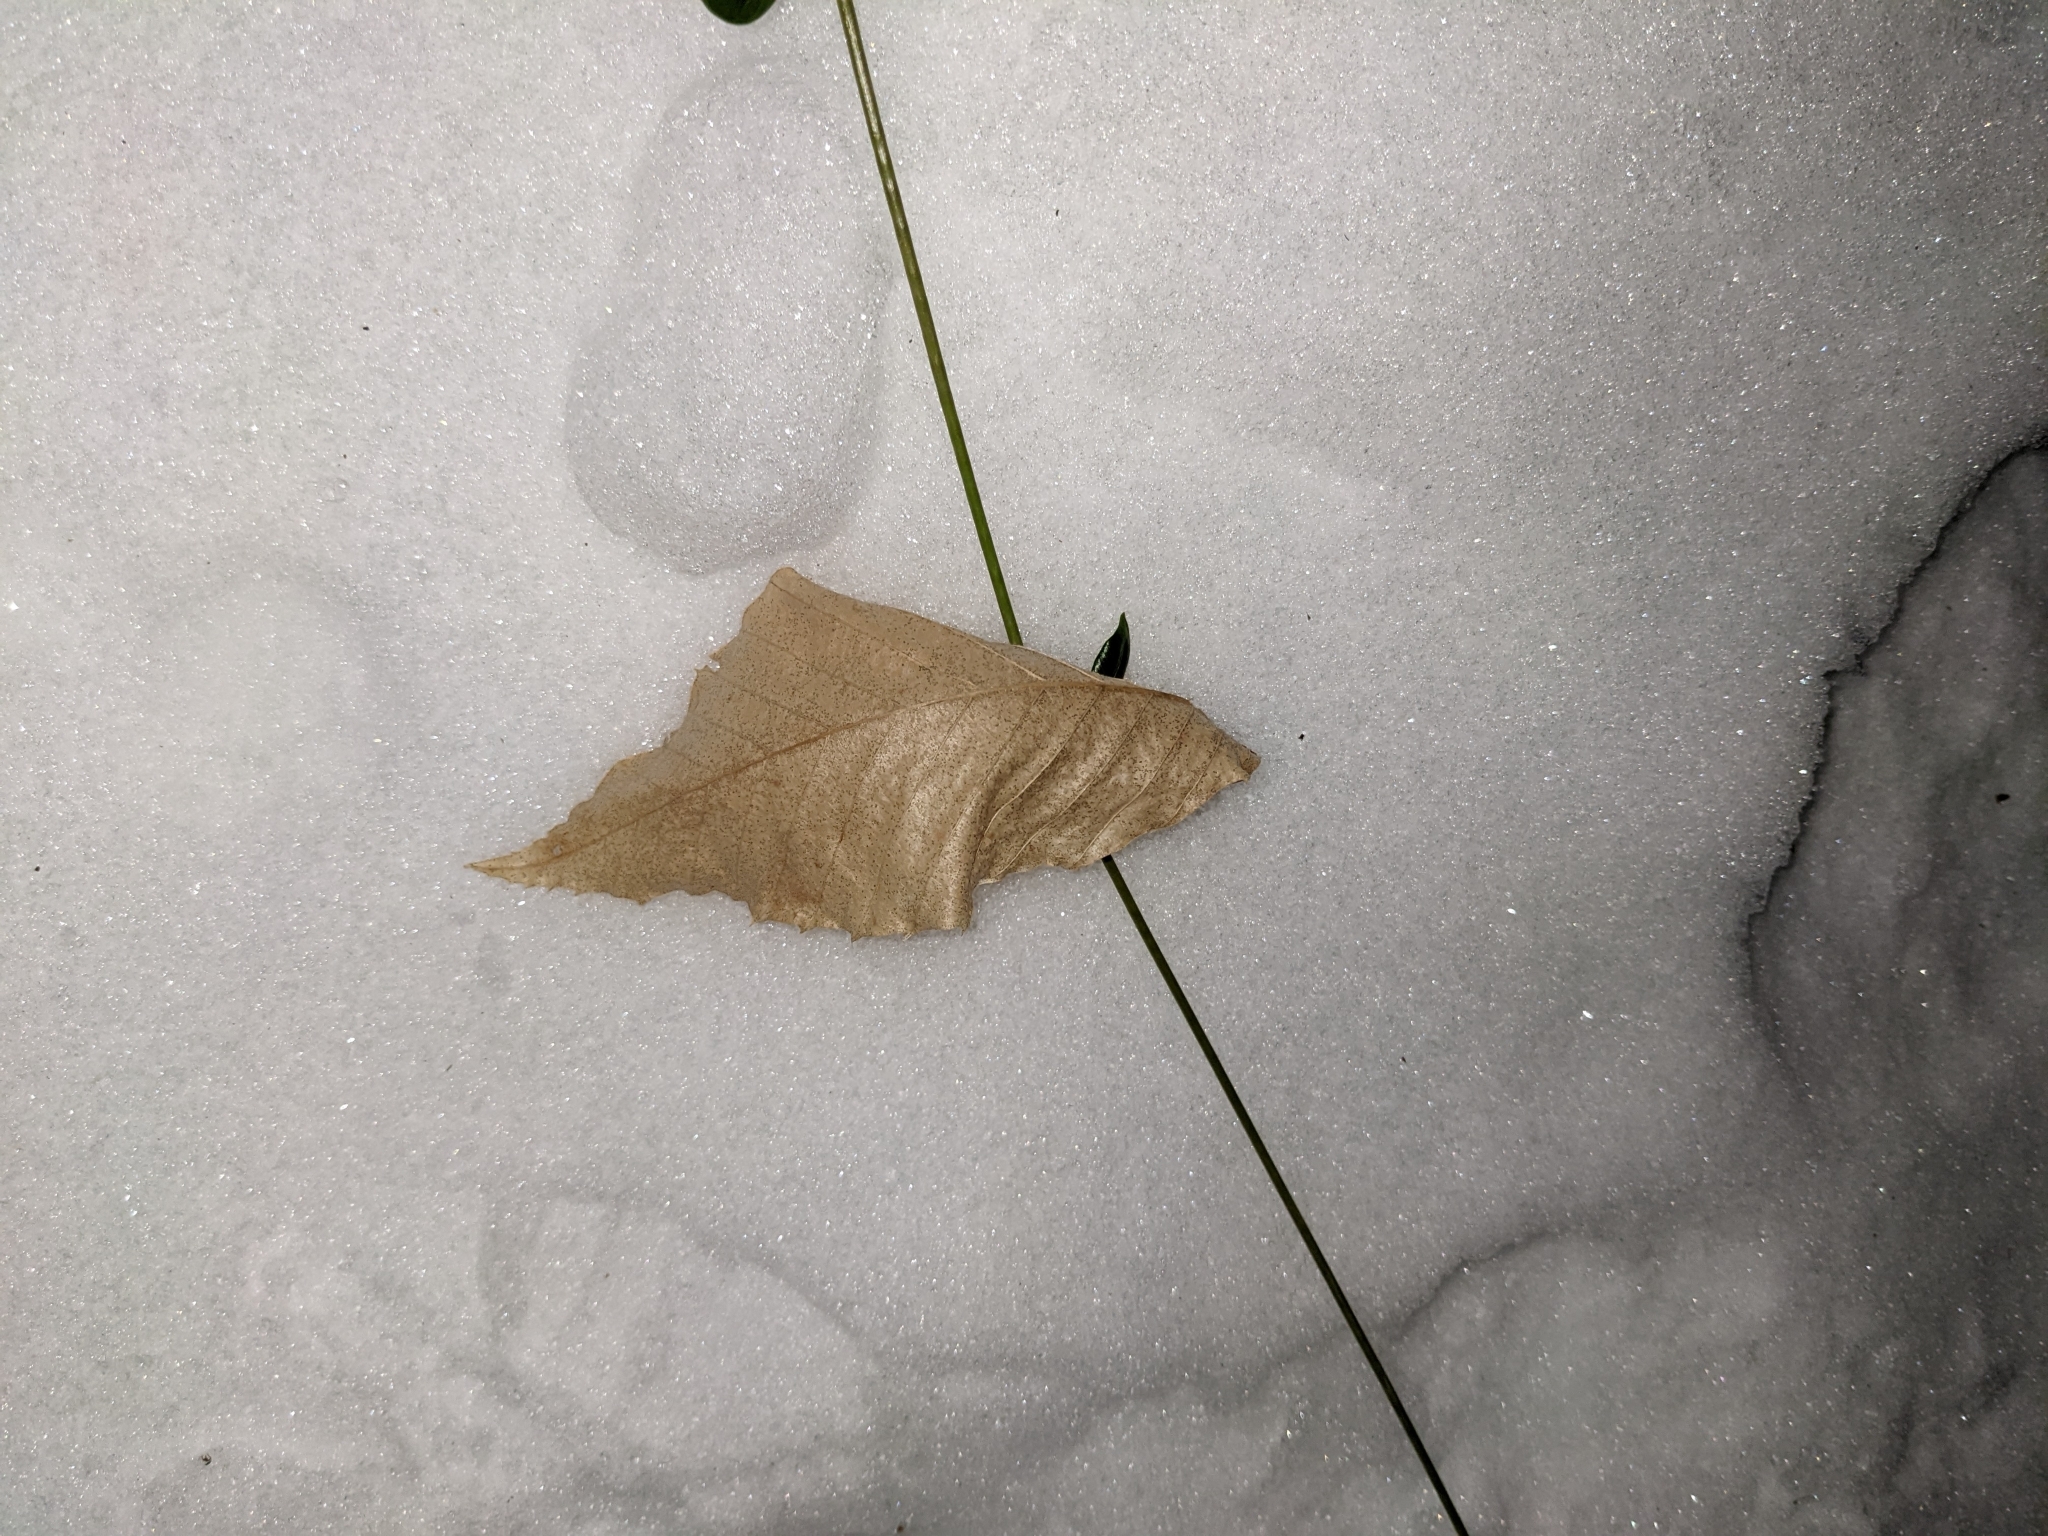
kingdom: Plantae
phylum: Tracheophyta
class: Magnoliopsida
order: Fagales
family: Fagaceae
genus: Fagus
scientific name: Fagus grandifolia
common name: American beech
